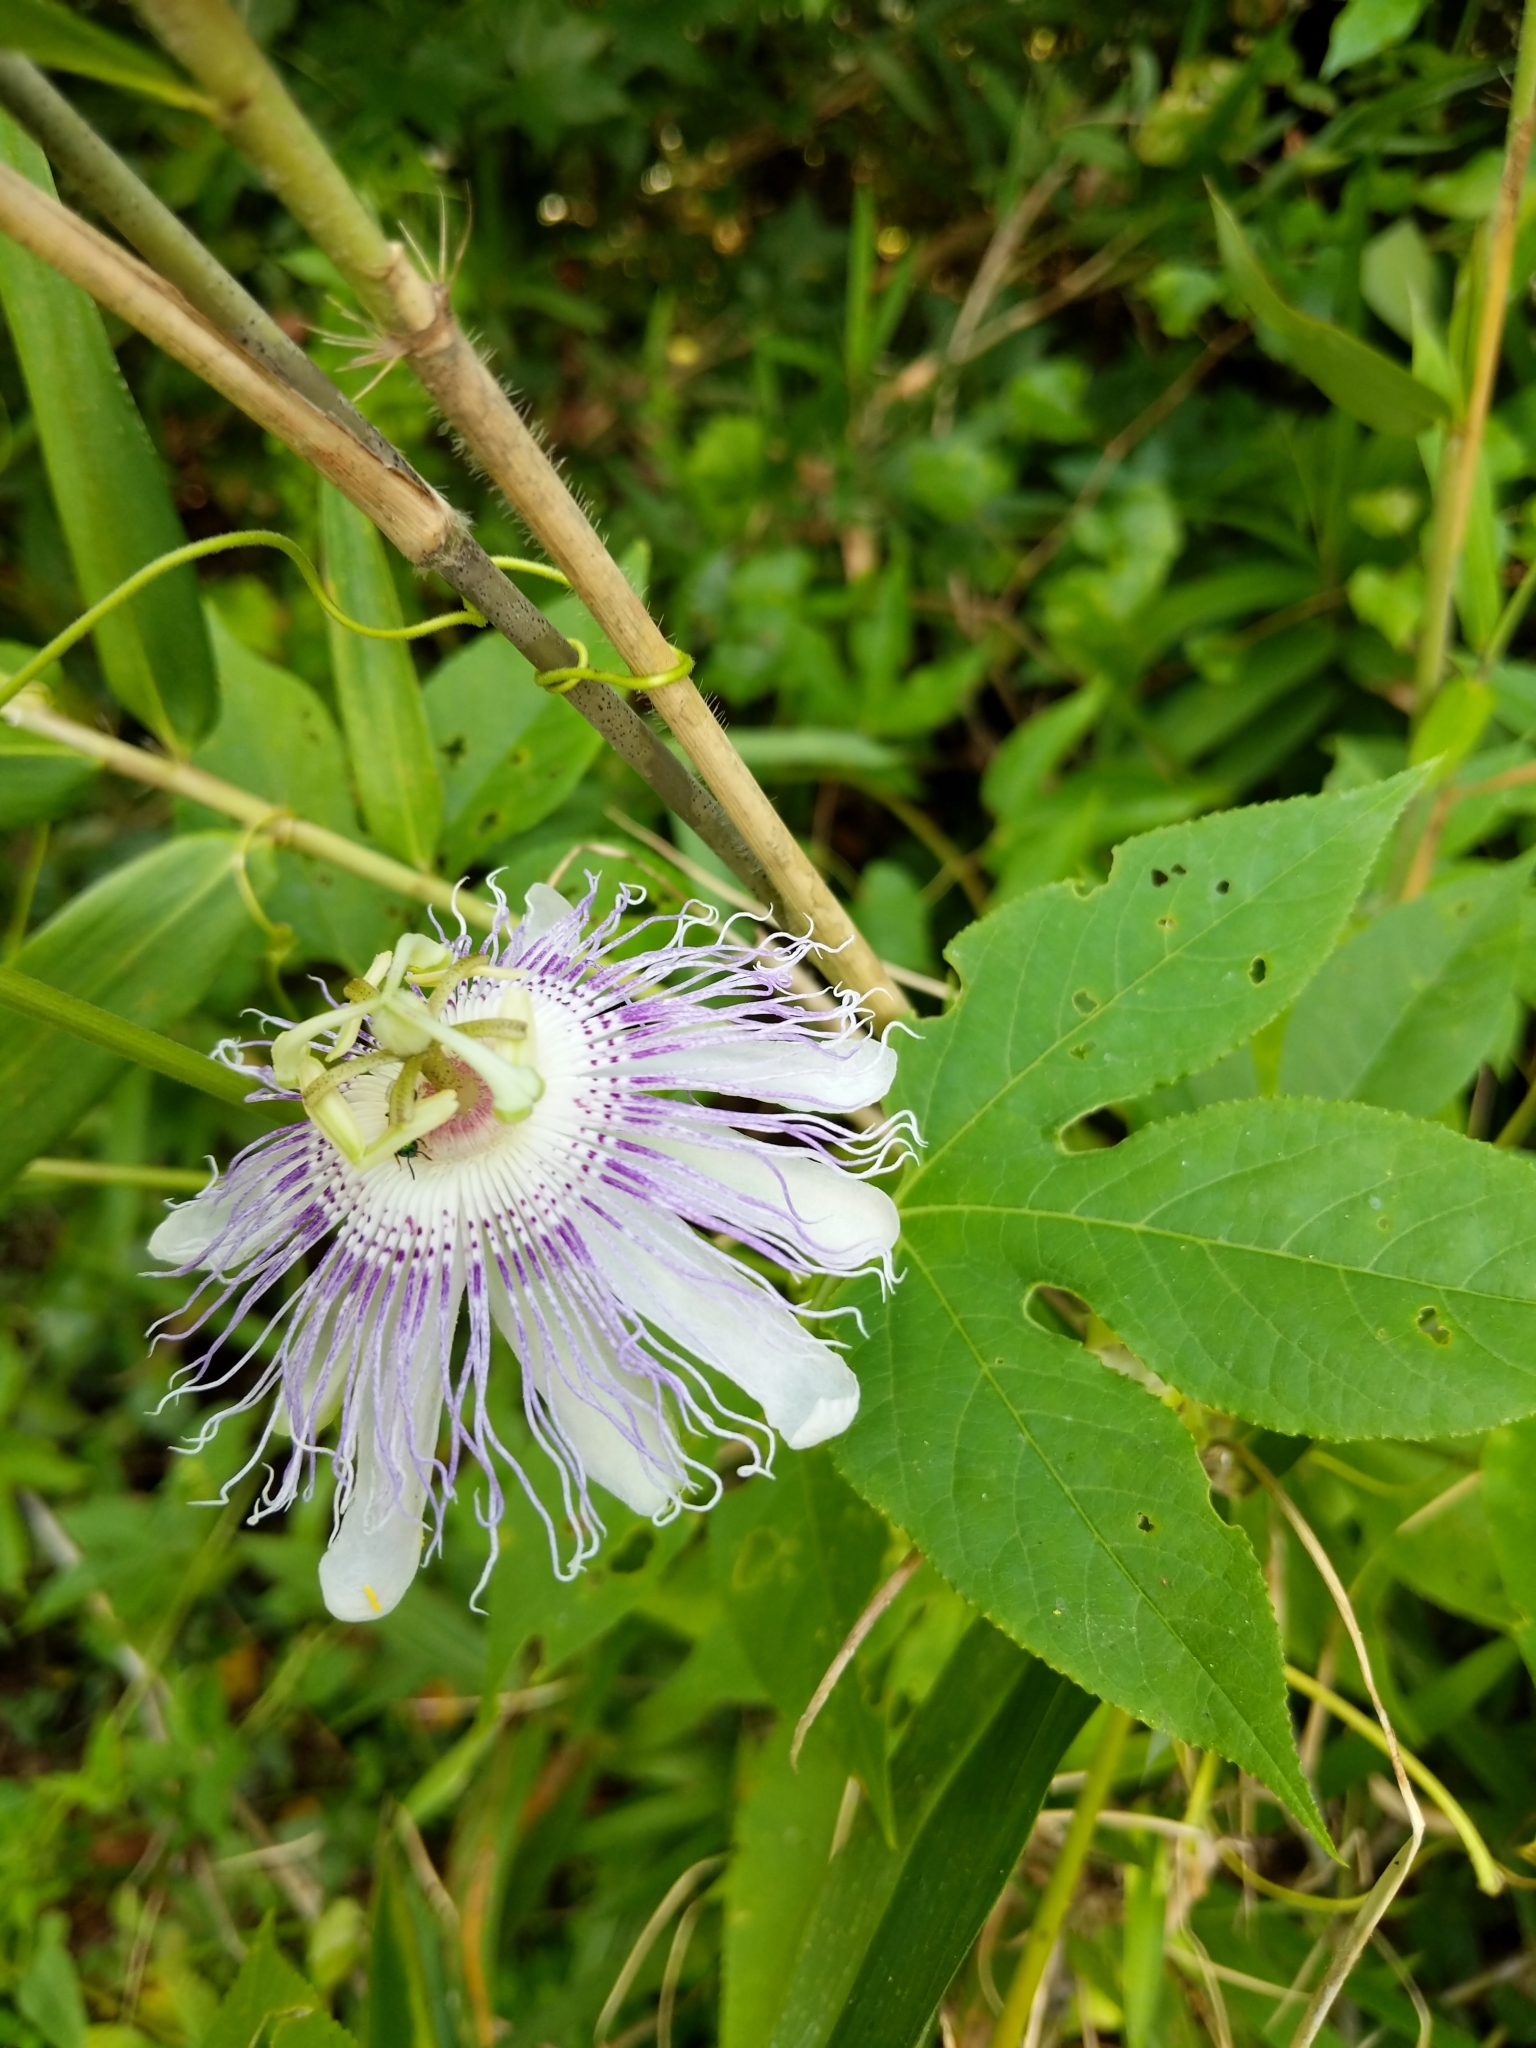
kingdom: Plantae
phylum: Tracheophyta
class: Magnoliopsida
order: Malpighiales
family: Passifloraceae
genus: Passiflora
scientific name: Passiflora incarnata
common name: Apricot-vine
